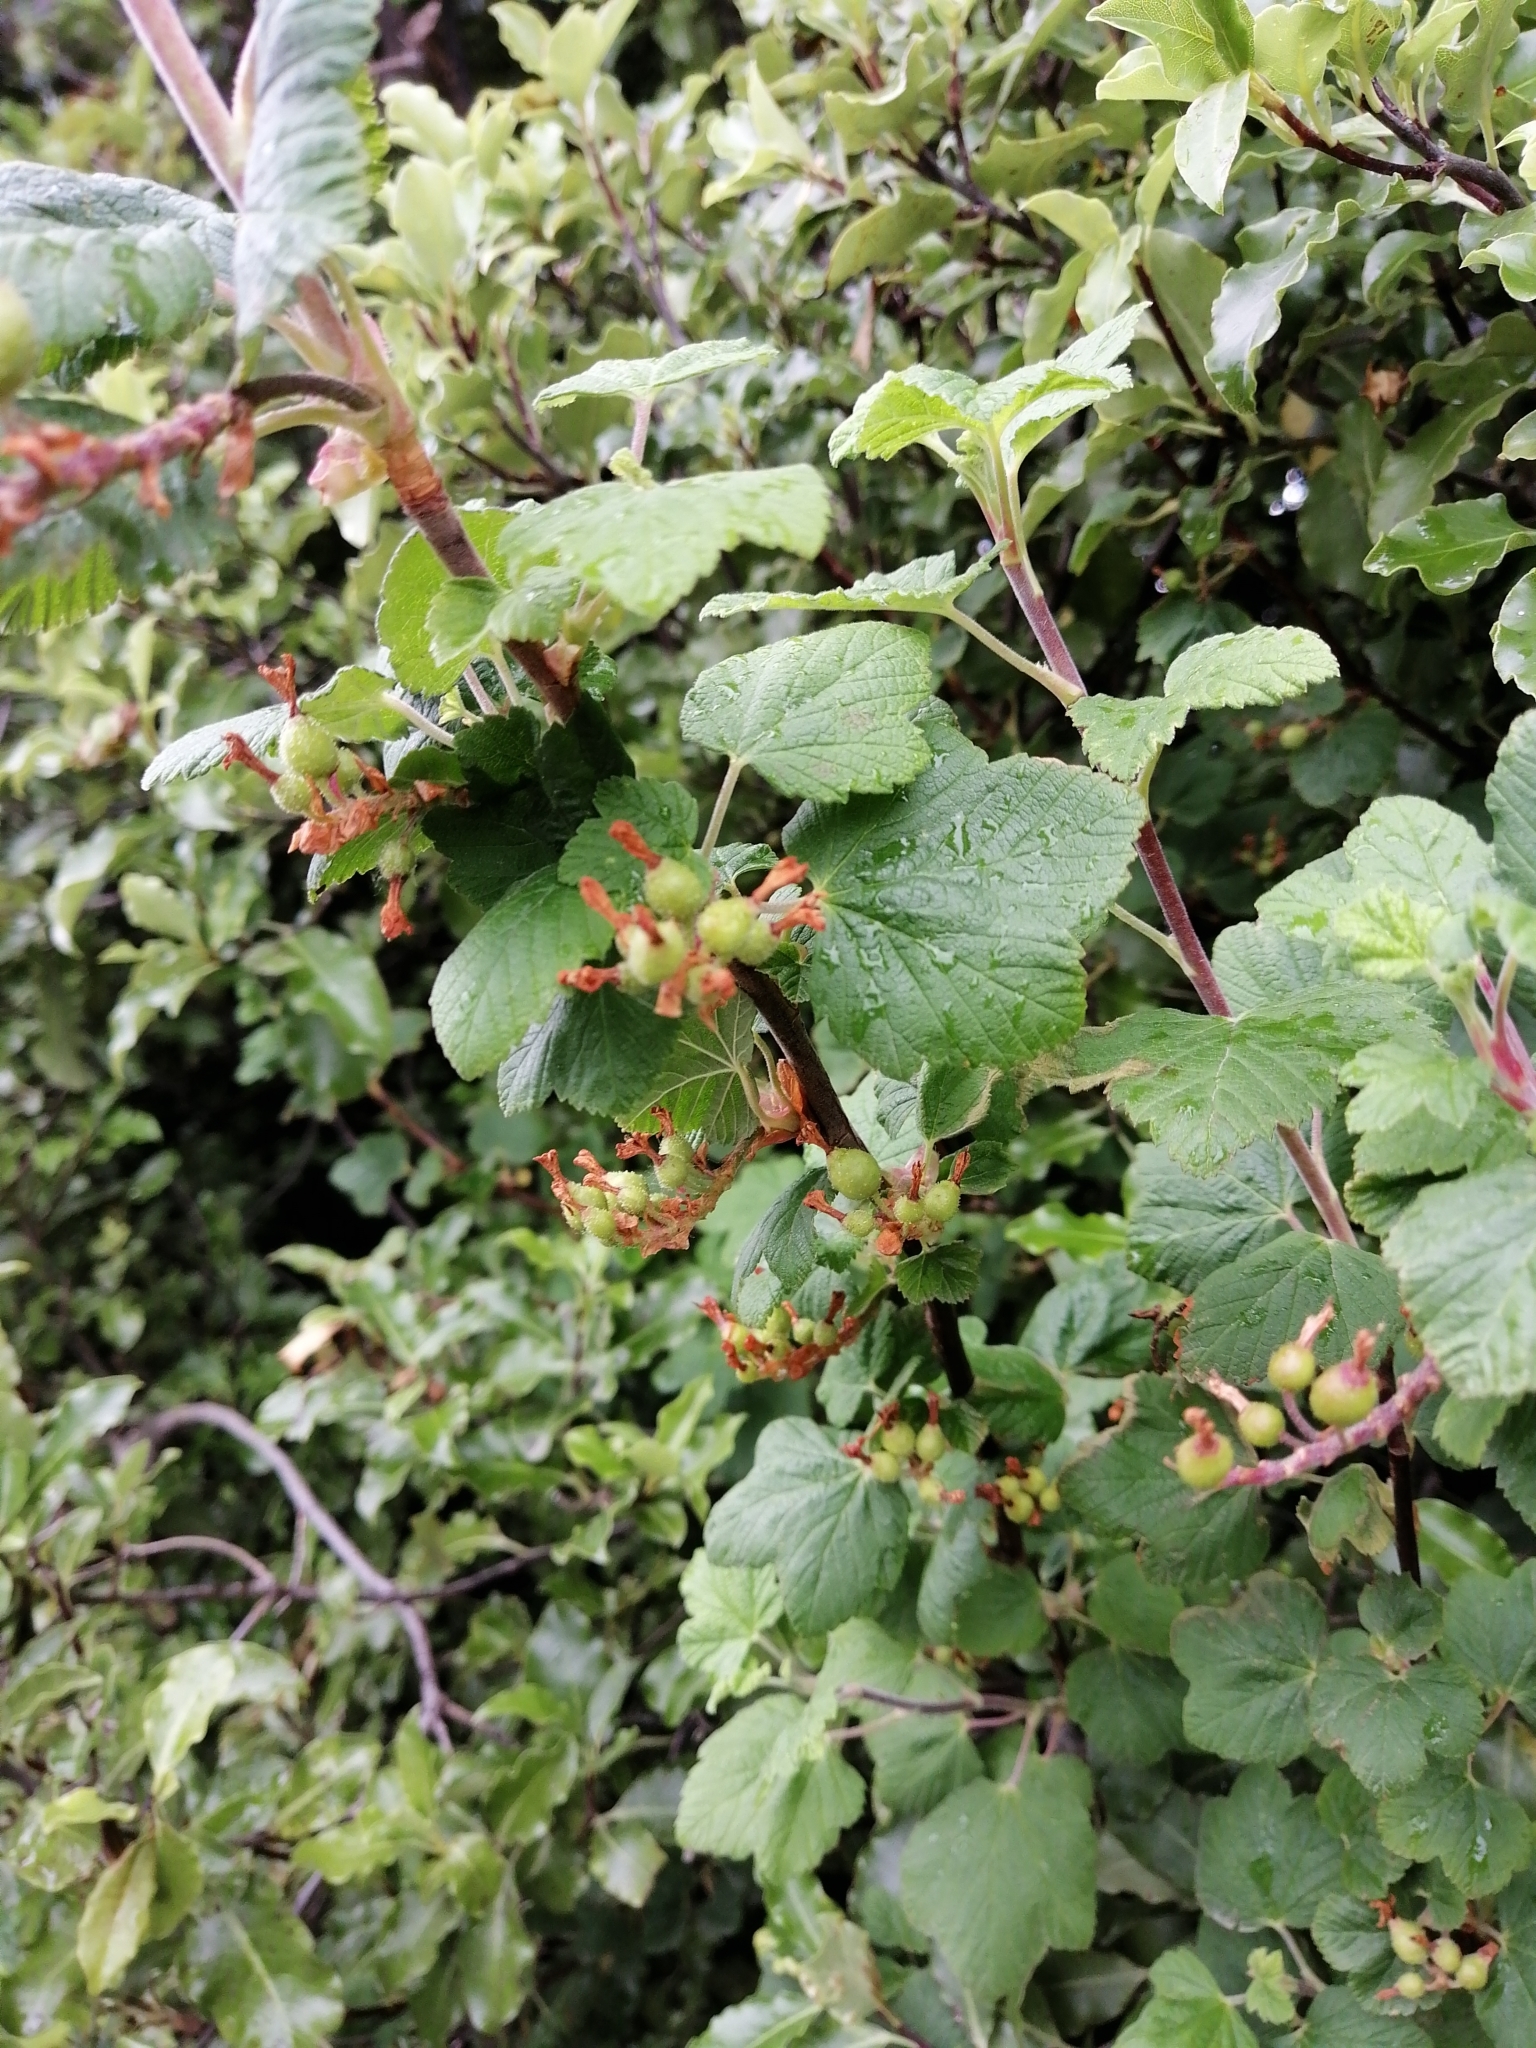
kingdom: Plantae
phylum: Tracheophyta
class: Magnoliopsida
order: Saxifragales
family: Grossulariaceae
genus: Ribes
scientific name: Ribes sanguineum
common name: Flowering currant
